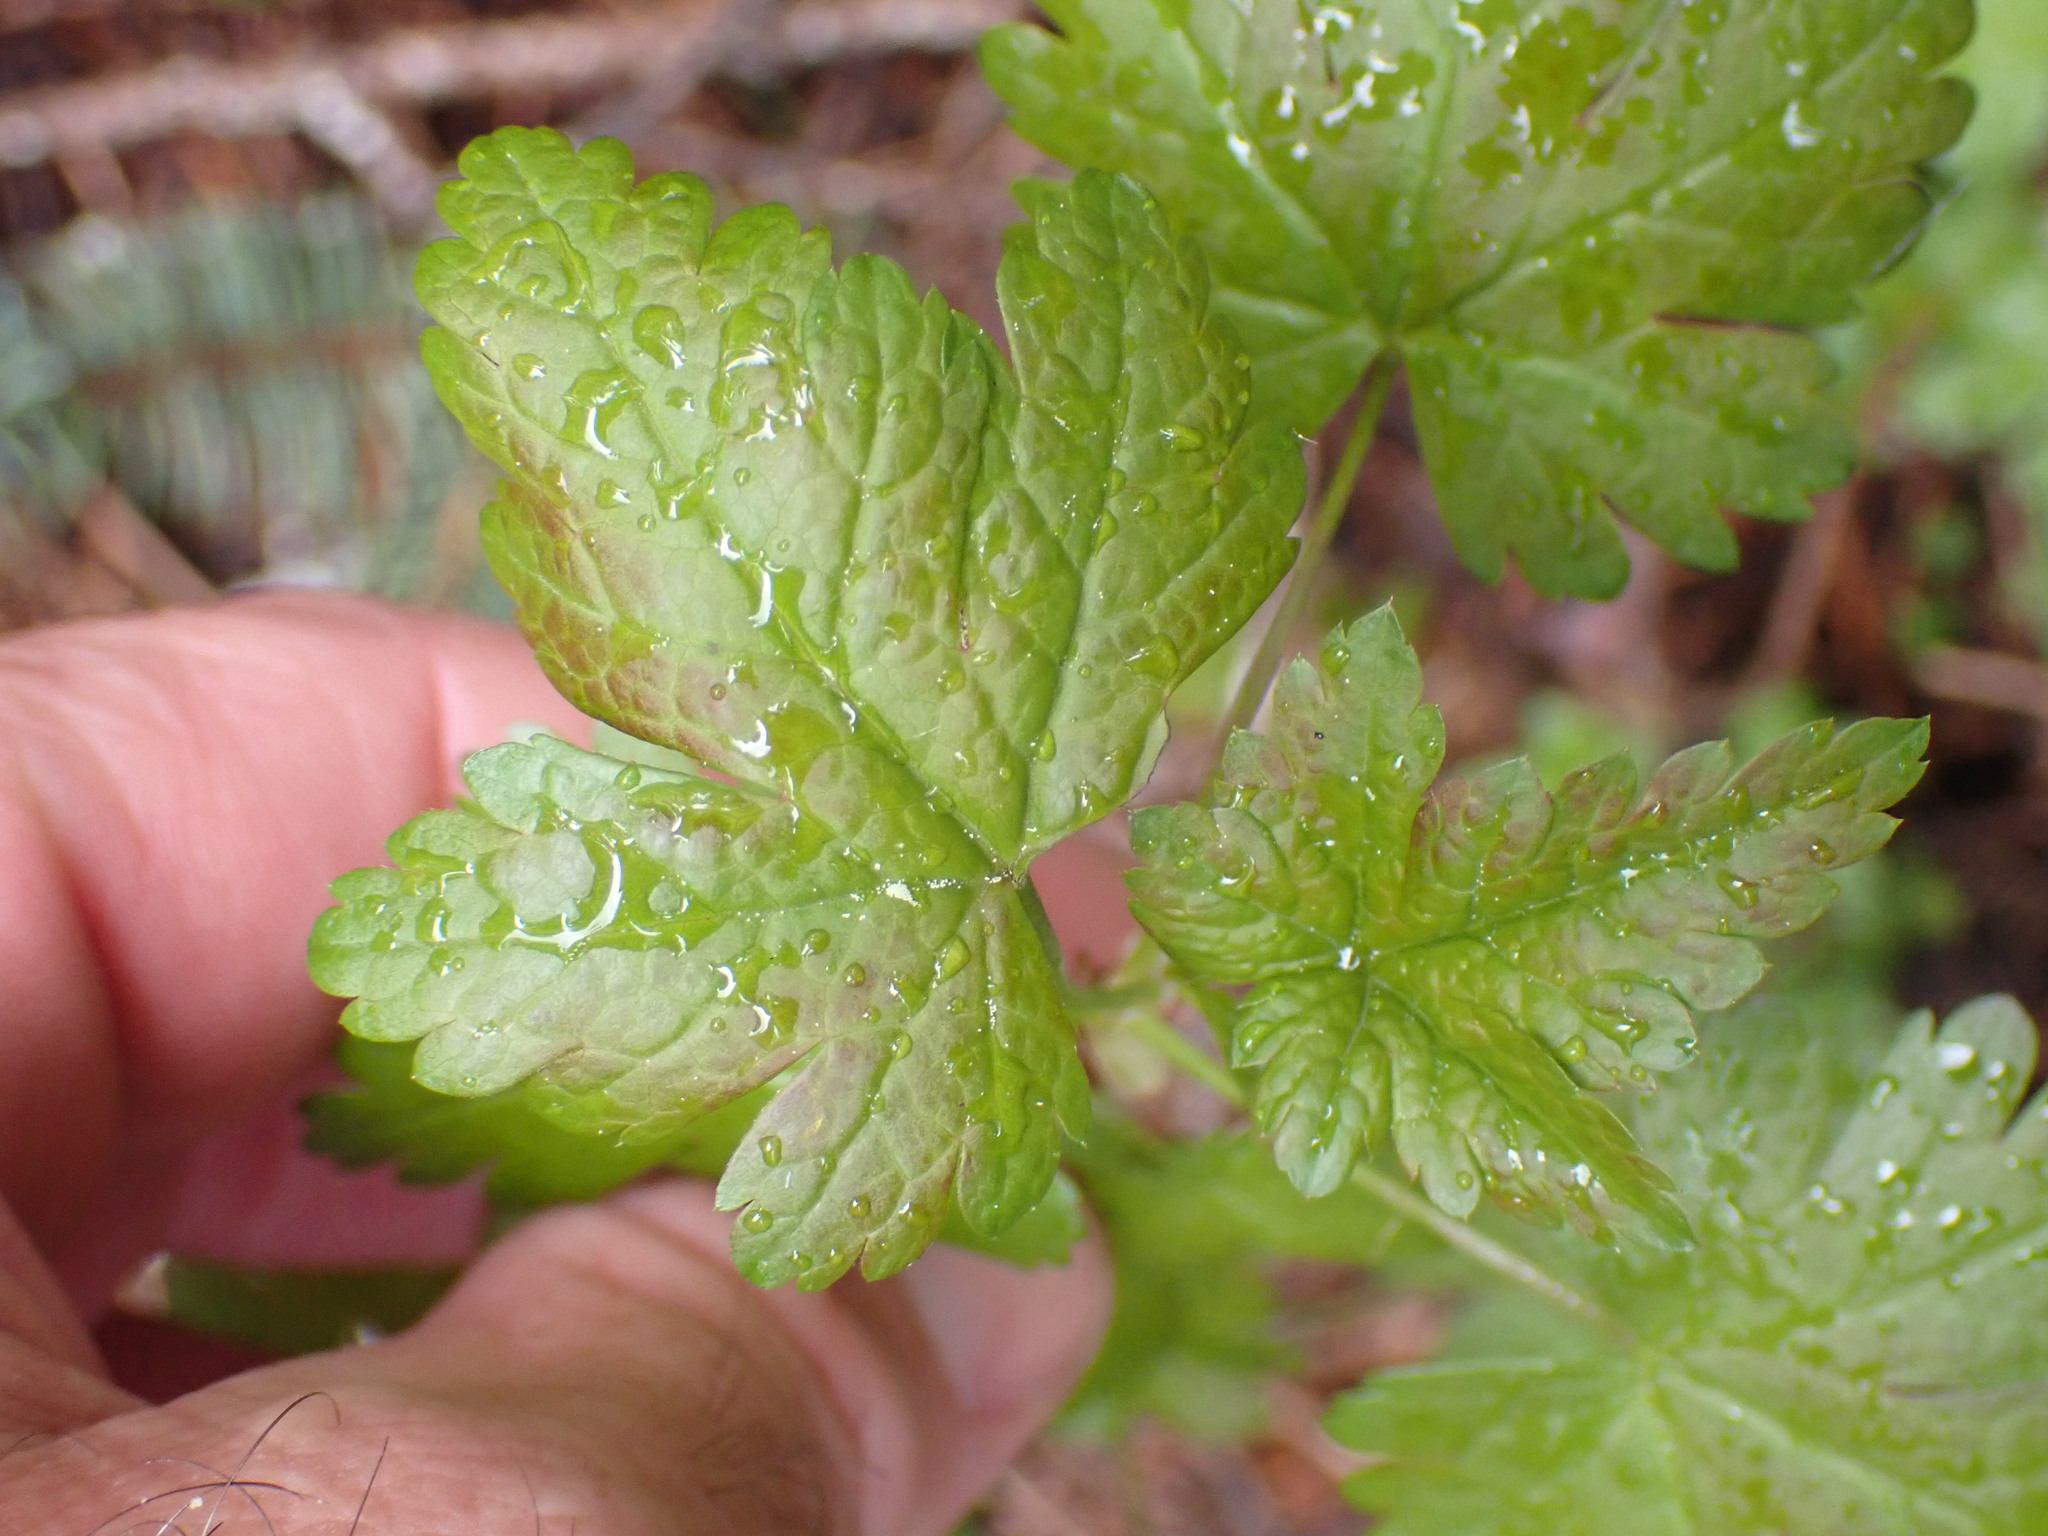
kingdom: Plantae
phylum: Tracheophyta
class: Magnoliopsida
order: Saxifragales
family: Grossulariaceae
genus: Ribes
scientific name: Ribes lacustre
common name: Black gooseberry
